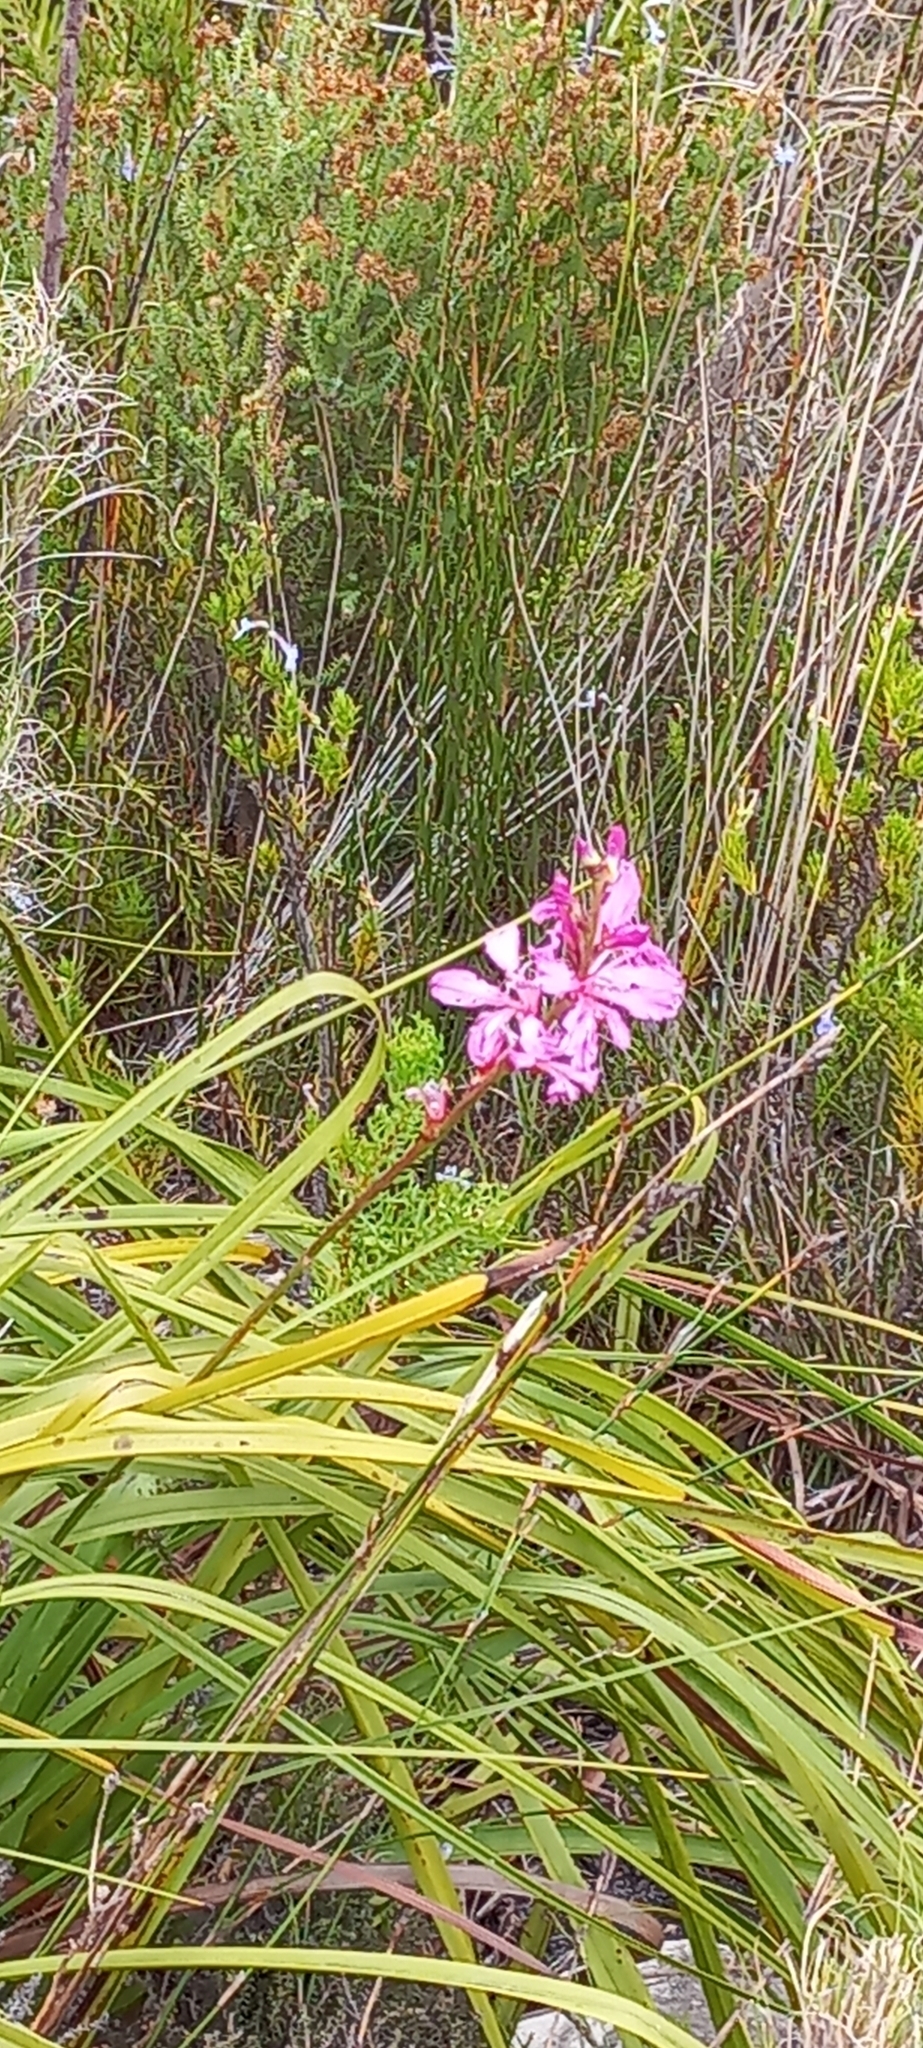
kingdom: Plantae
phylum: Tracheophyta
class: Liliopsida
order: Asparagales
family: Iridaceae
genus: Tritoniopsis
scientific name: Tritoniopsis lata
